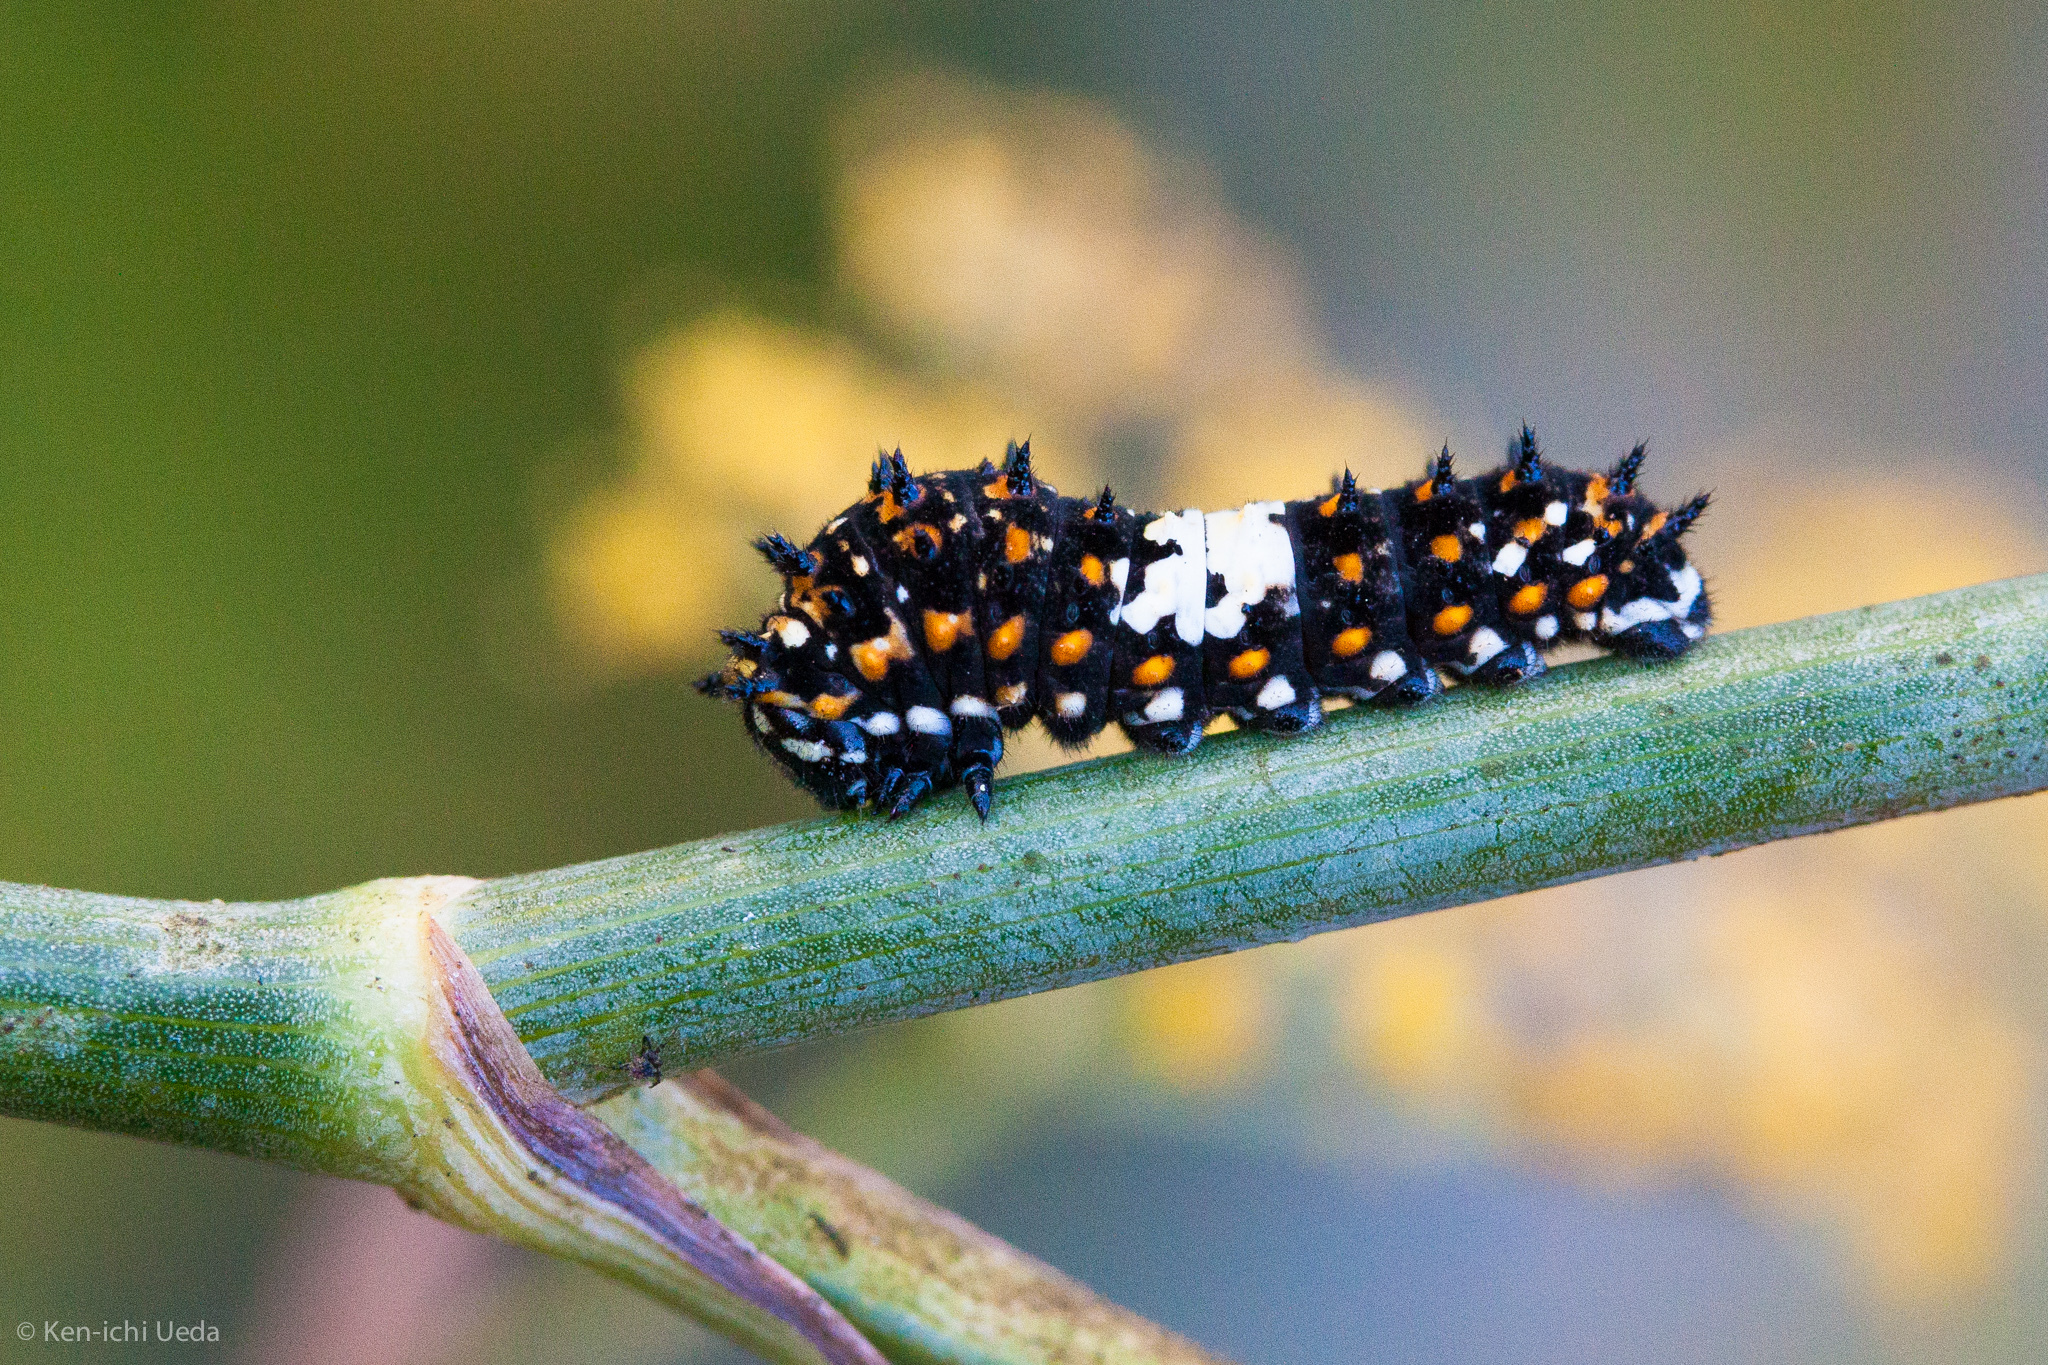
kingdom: Animalia
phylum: Arthropoda
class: Insecta
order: Lepidoptera
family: Papilionidae
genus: Papilio
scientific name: Papilio zelicaon
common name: Anise swallowtail
